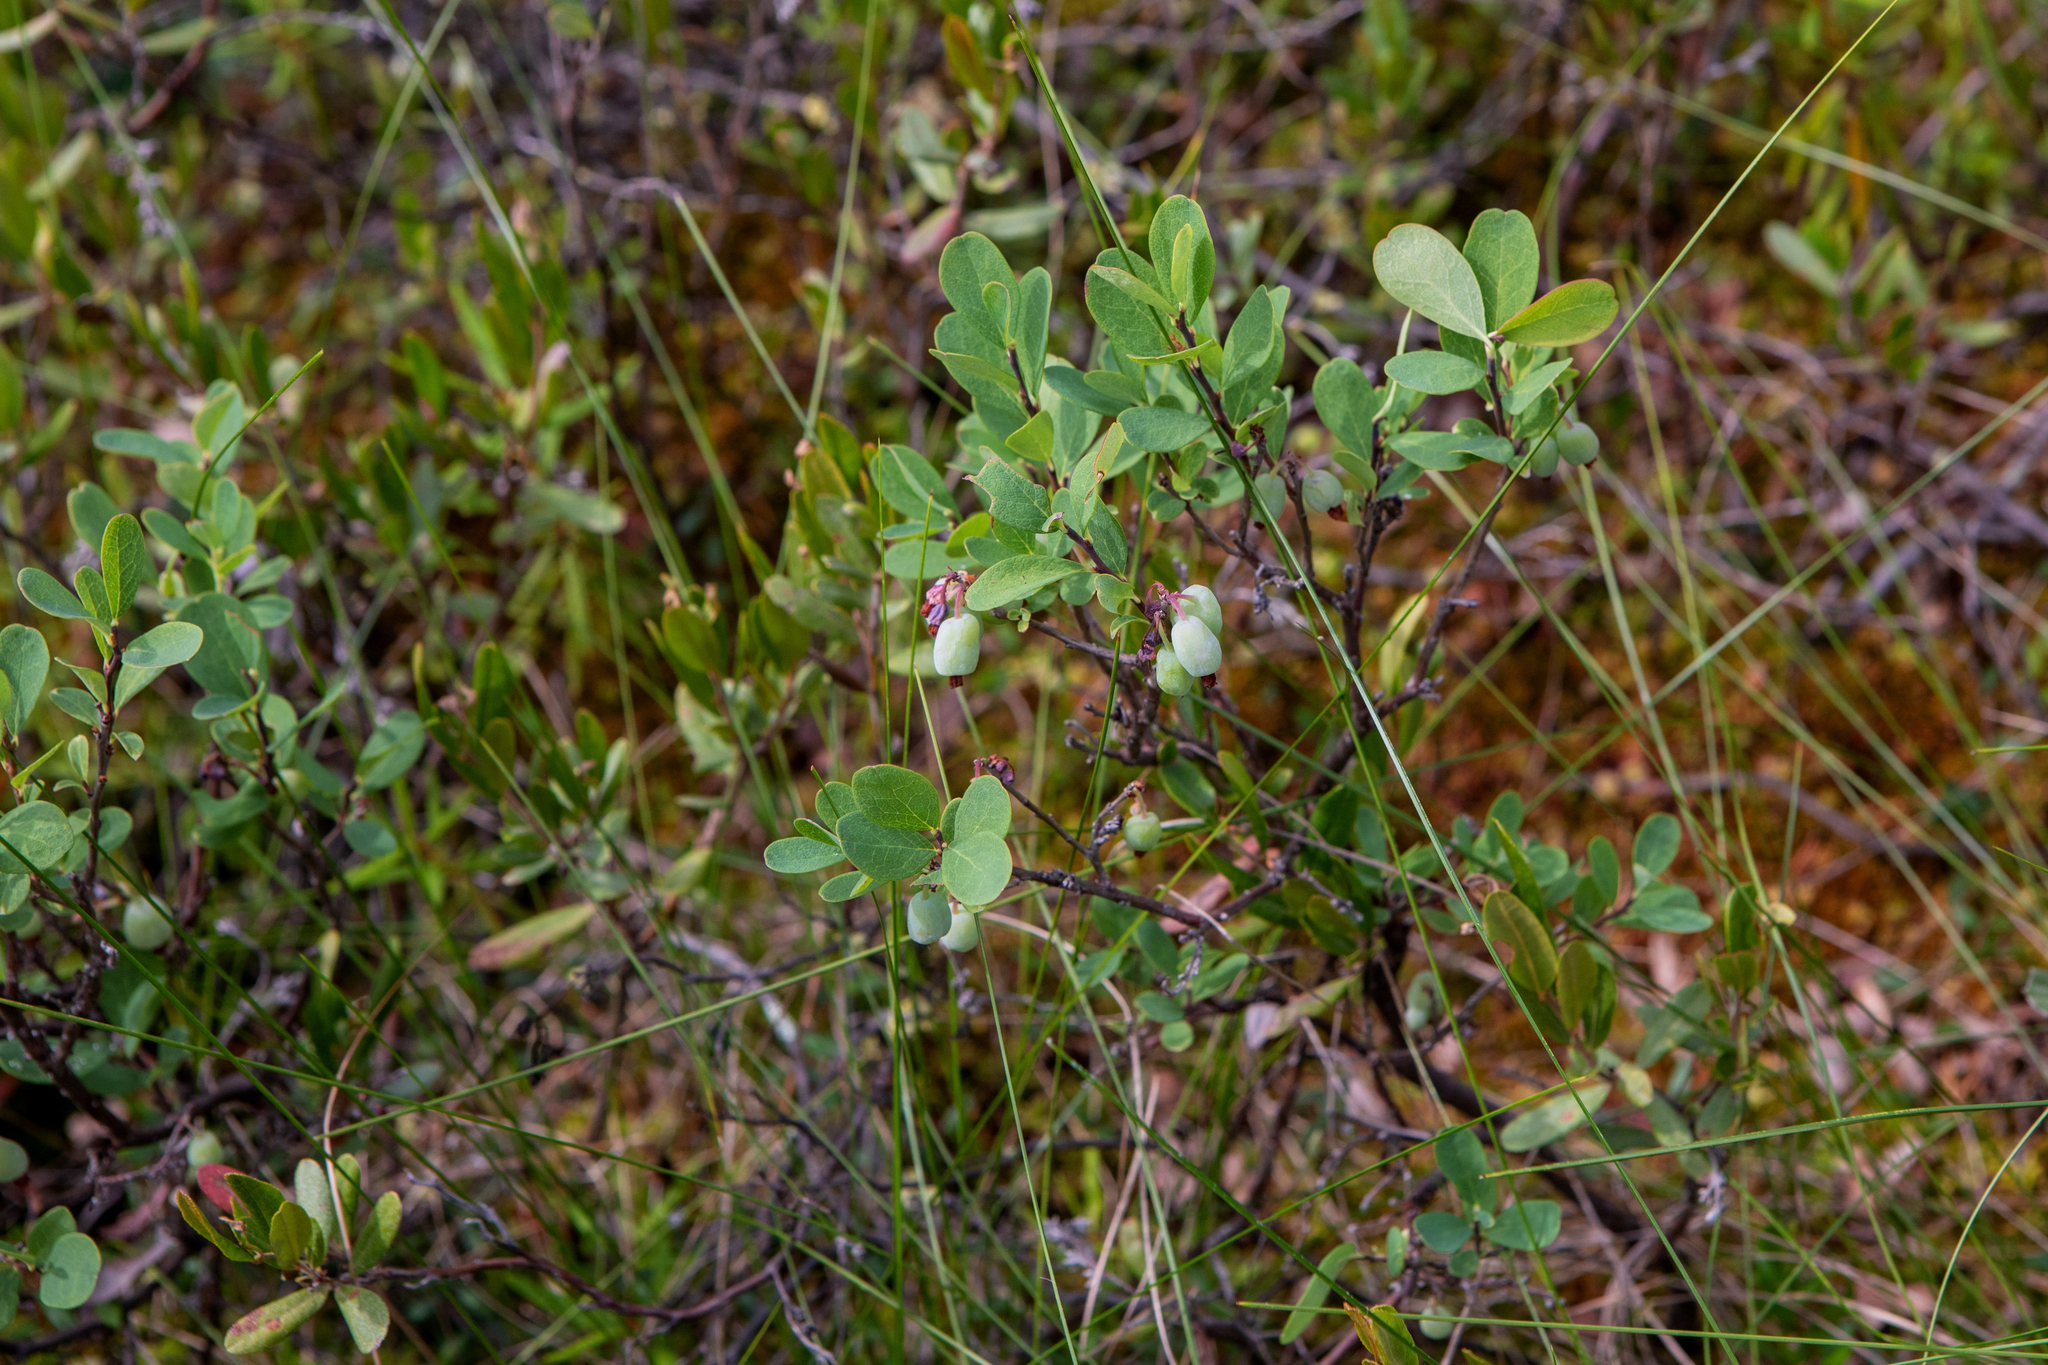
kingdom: Plantae
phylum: Tracheophyta
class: Magnoliopsida
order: Ericales
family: Ericaceae
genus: Vaccinium
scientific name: Vaccinium uliginosum
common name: Bog bilberry
